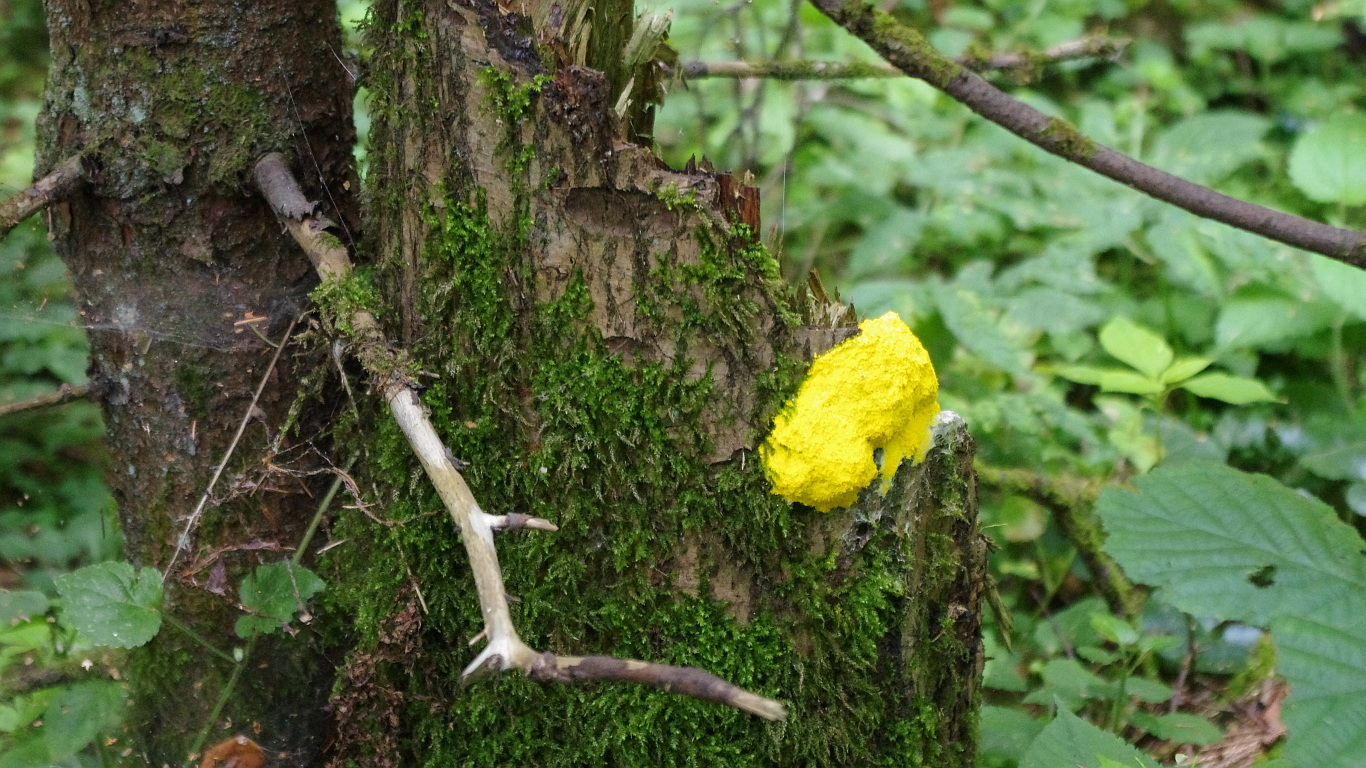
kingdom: Protozoa
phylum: Mycetozoa
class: Myxomycetes
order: Physarales
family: Physaraceae
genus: Fuligo
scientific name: Fuligo septica
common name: Dog vomit slime mold
